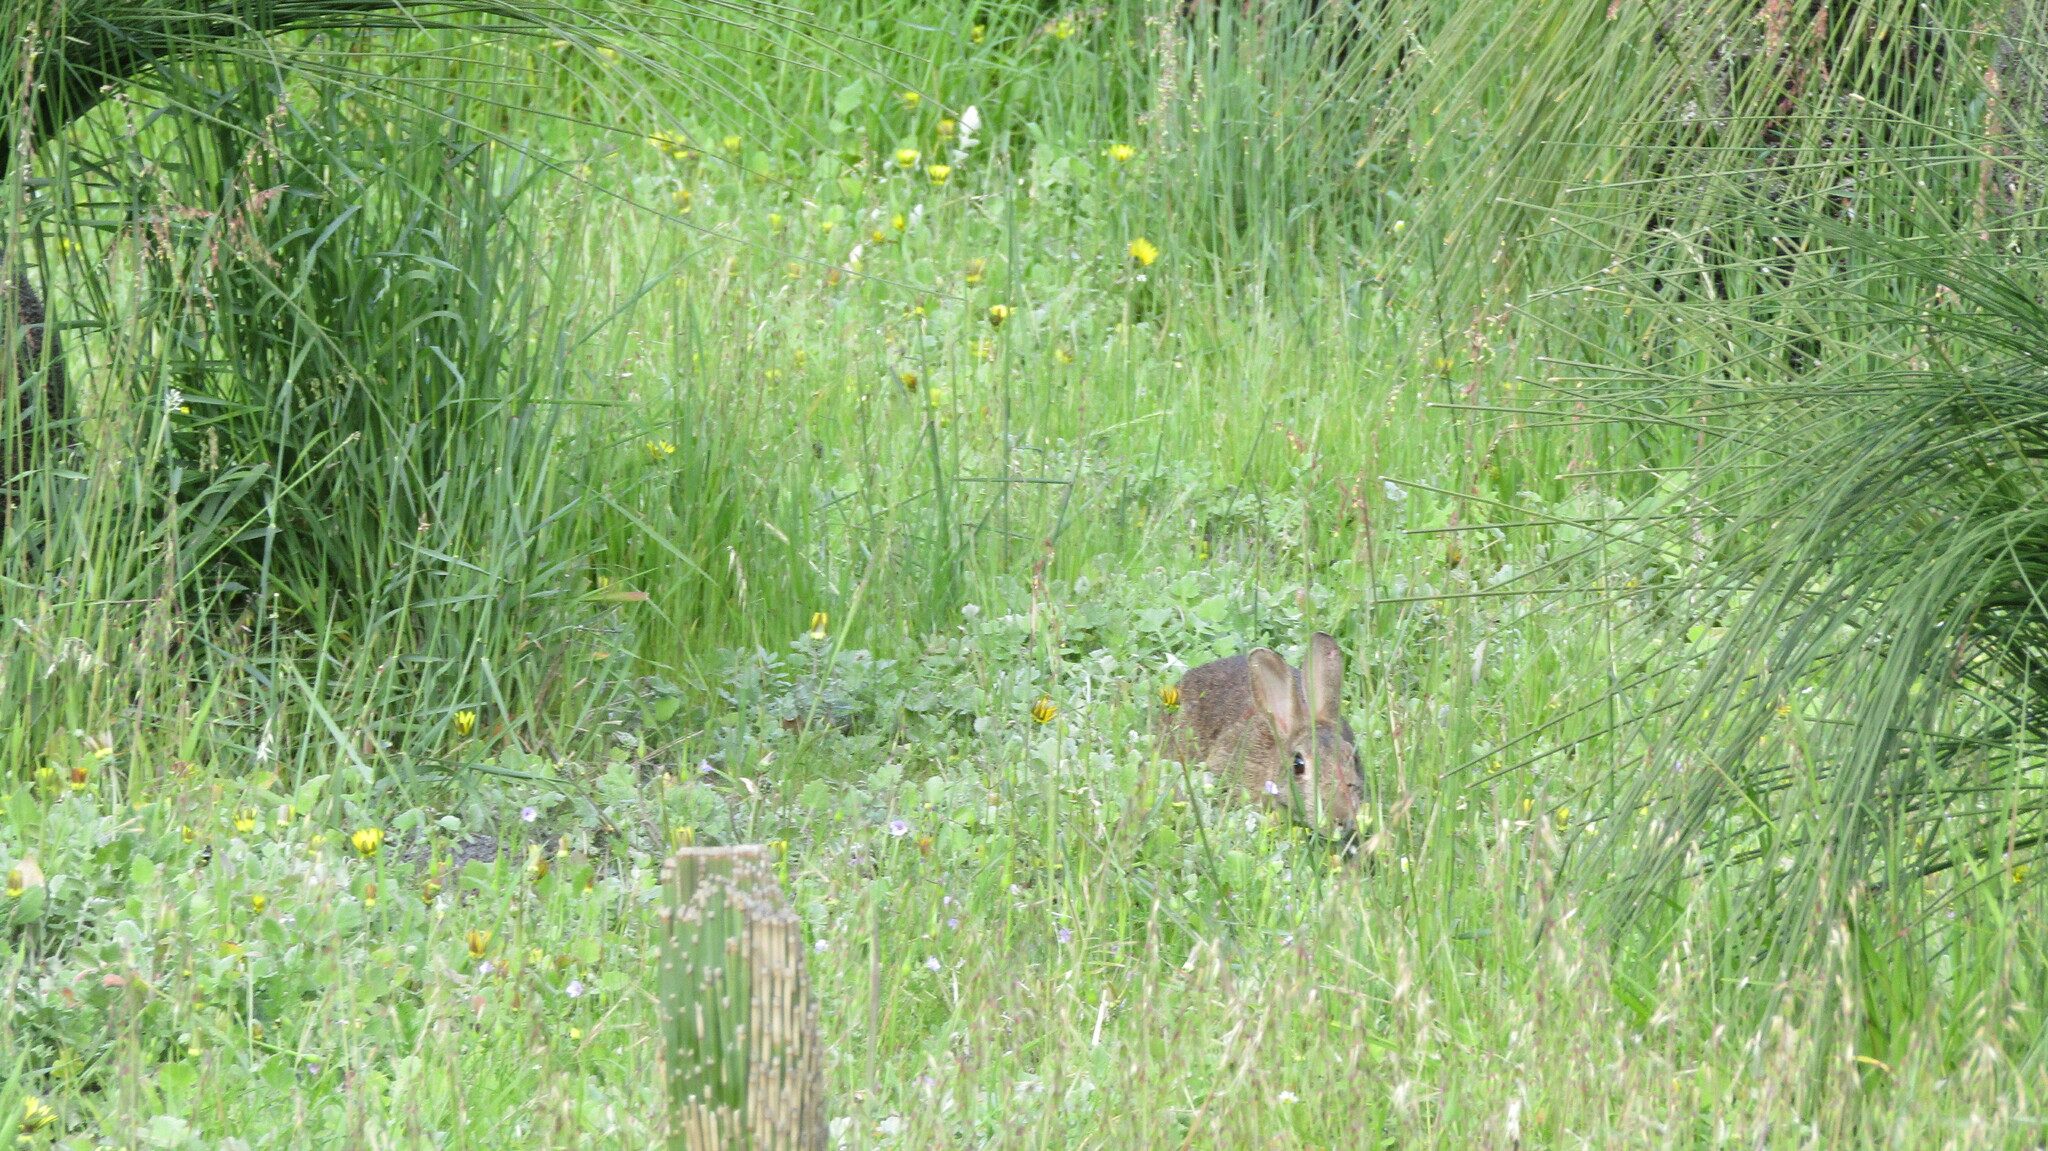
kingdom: Animalia
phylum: Chordata
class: Mammalia
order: Lagomorpha
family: Leporidae
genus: Oryctolagus
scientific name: Oryctolagus cuniculus
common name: European rabbit
